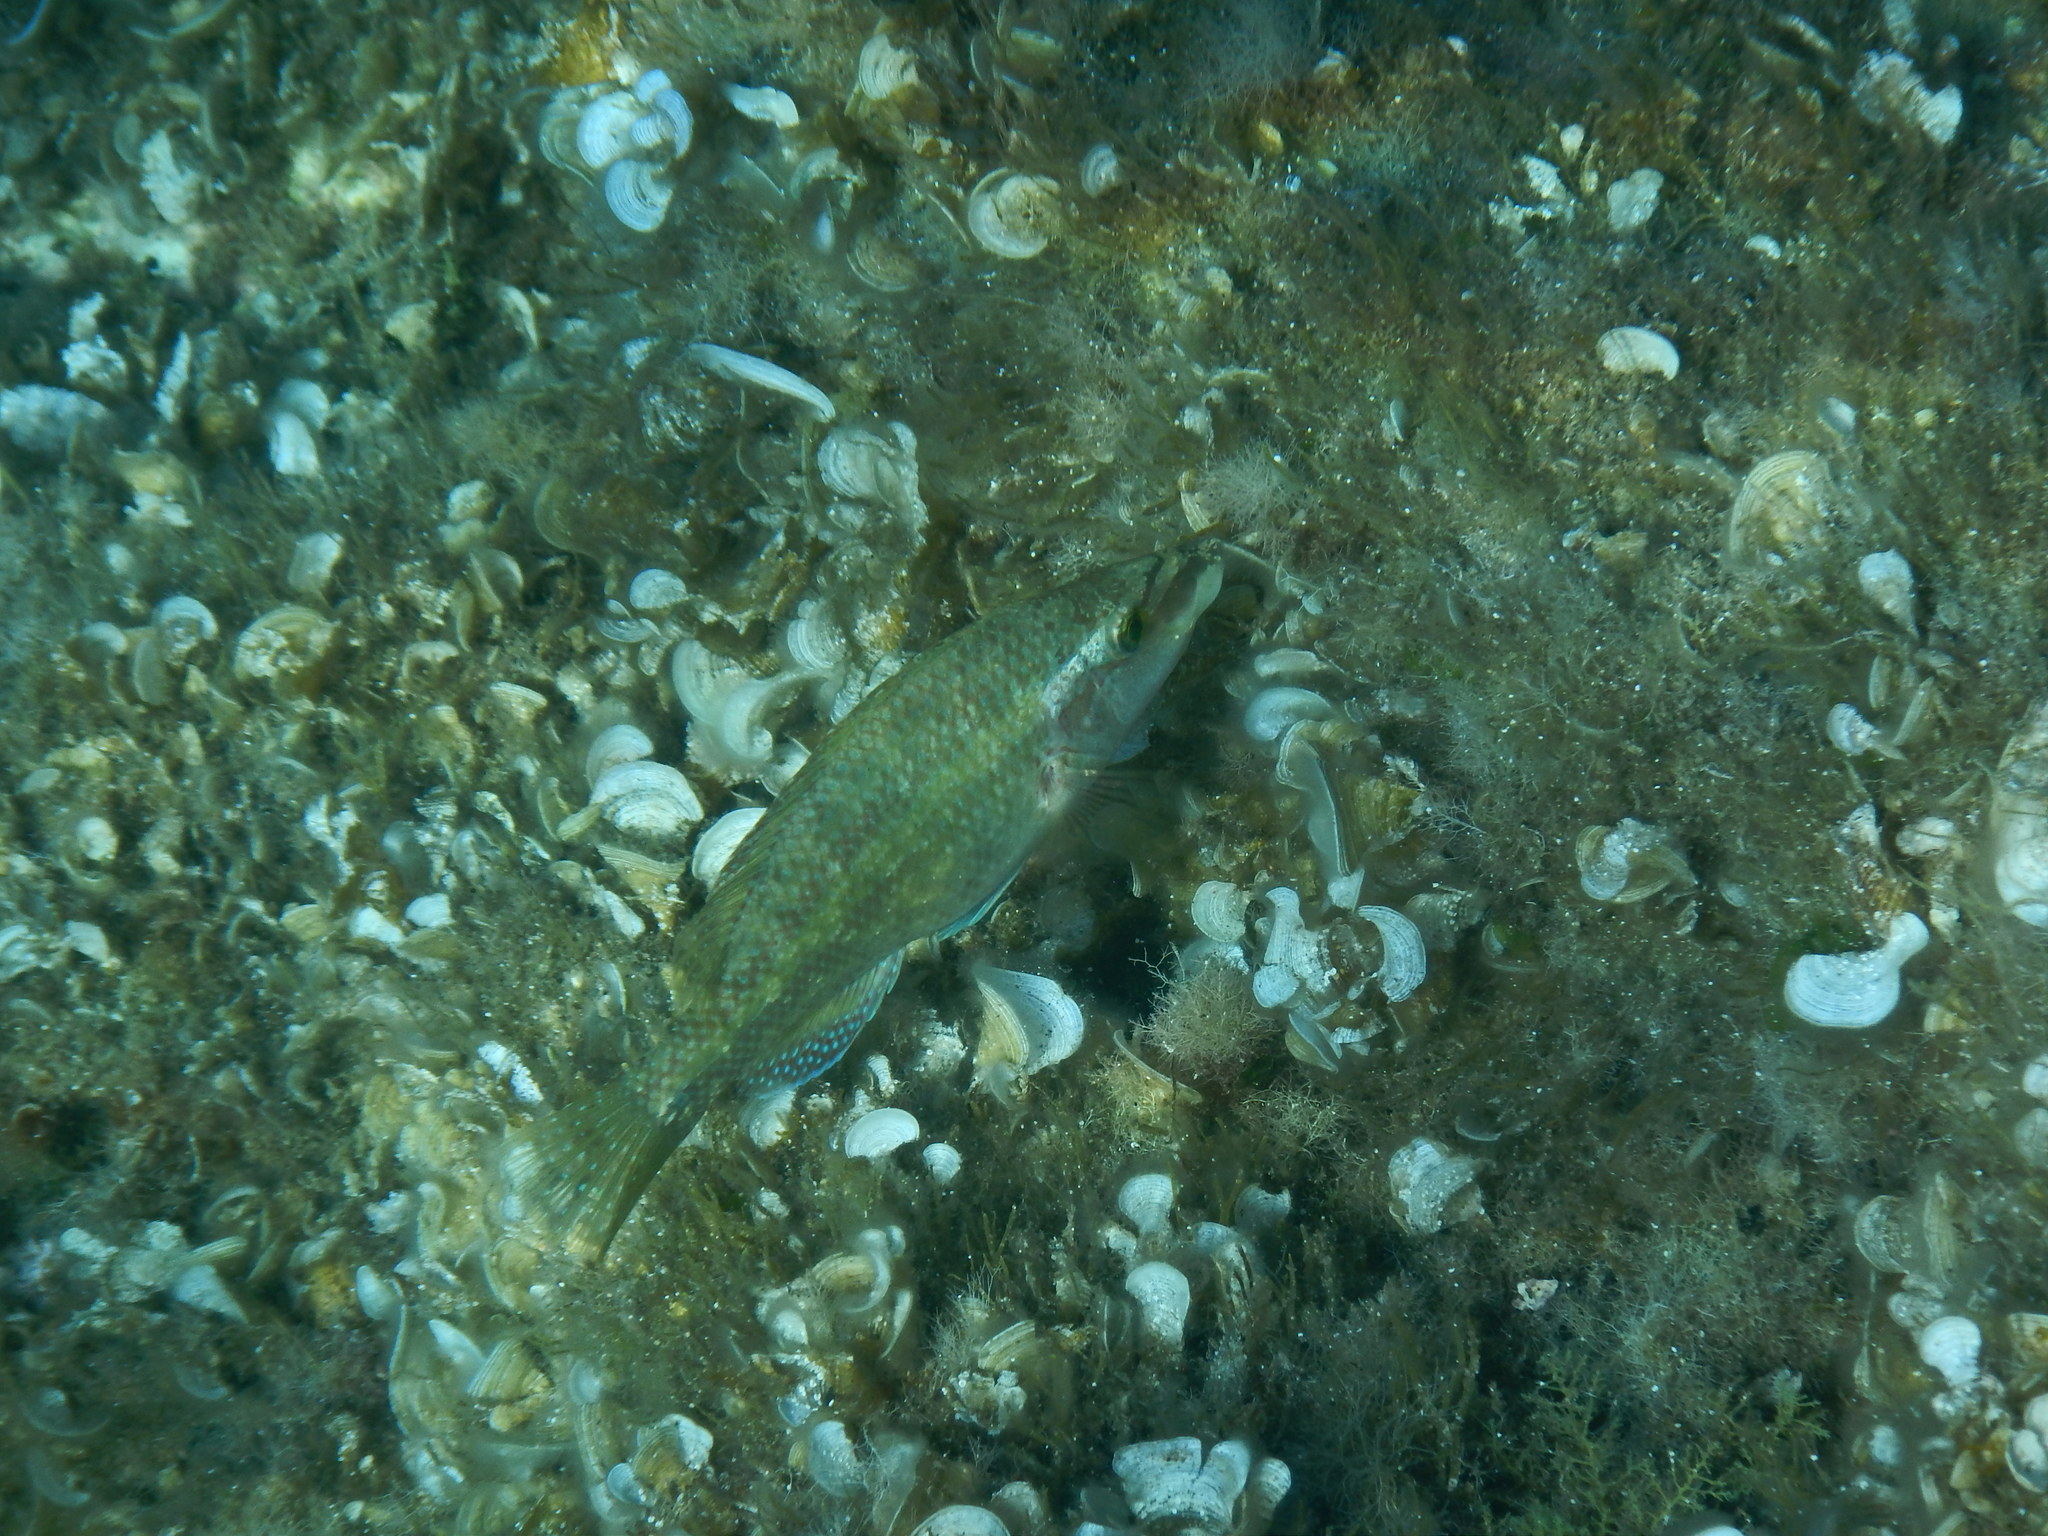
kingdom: Animalia
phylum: Chordata
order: Perciformes
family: Labridae
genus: Symphodus
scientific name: Symphodus tinca
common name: Peacock wrasse
